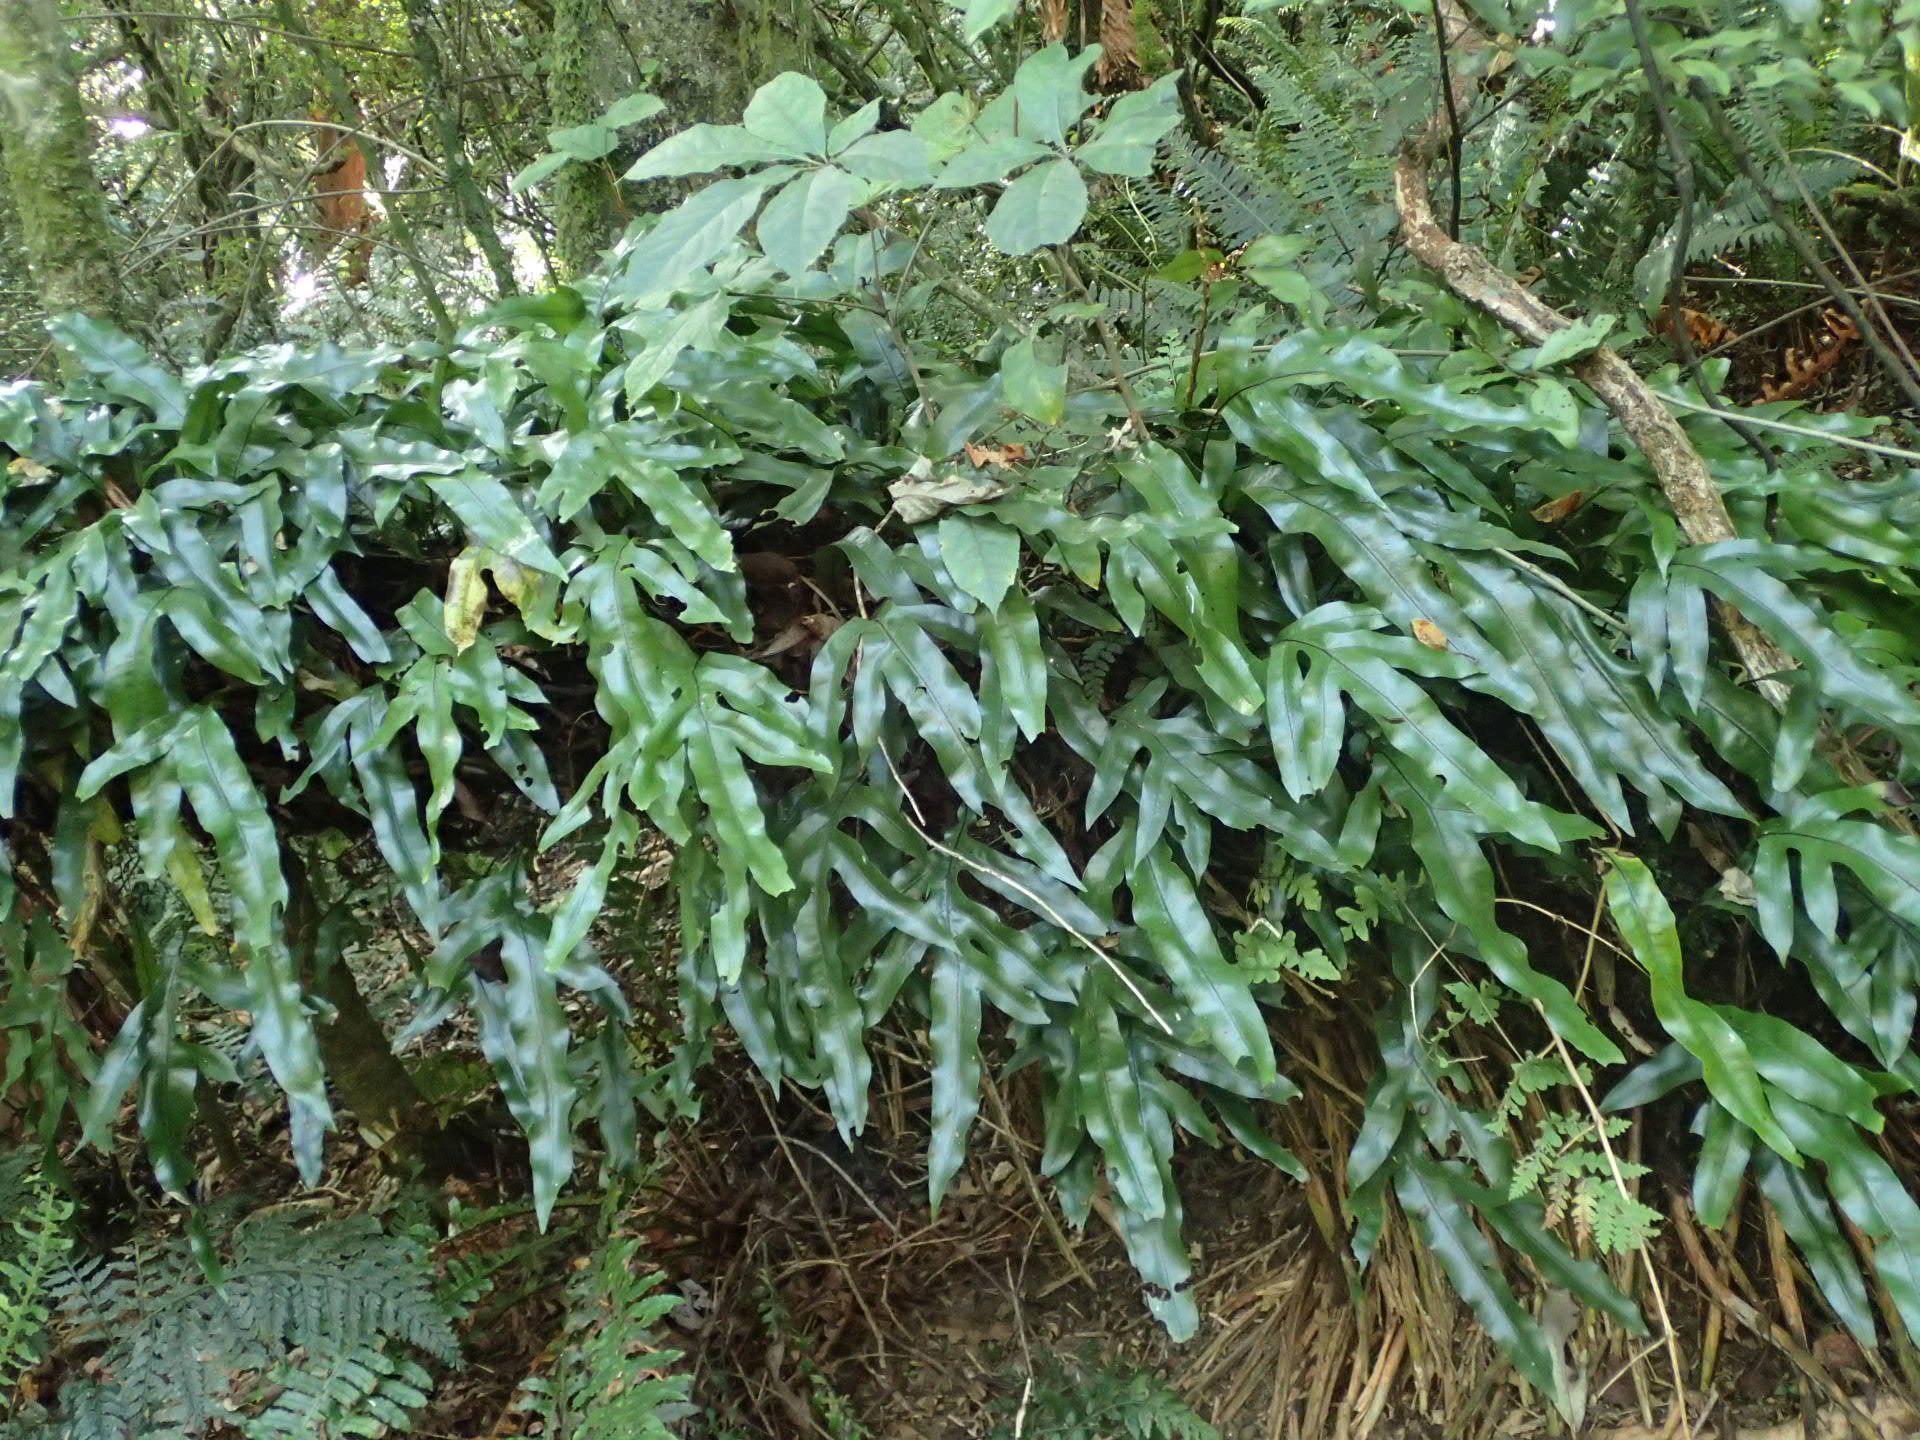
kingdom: Plantae
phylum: Tracheophyta
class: Polypodiopsida
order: Polypodiales
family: Polypodiaceae
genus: Lecanopteris
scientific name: Lecanopteris pustulata
